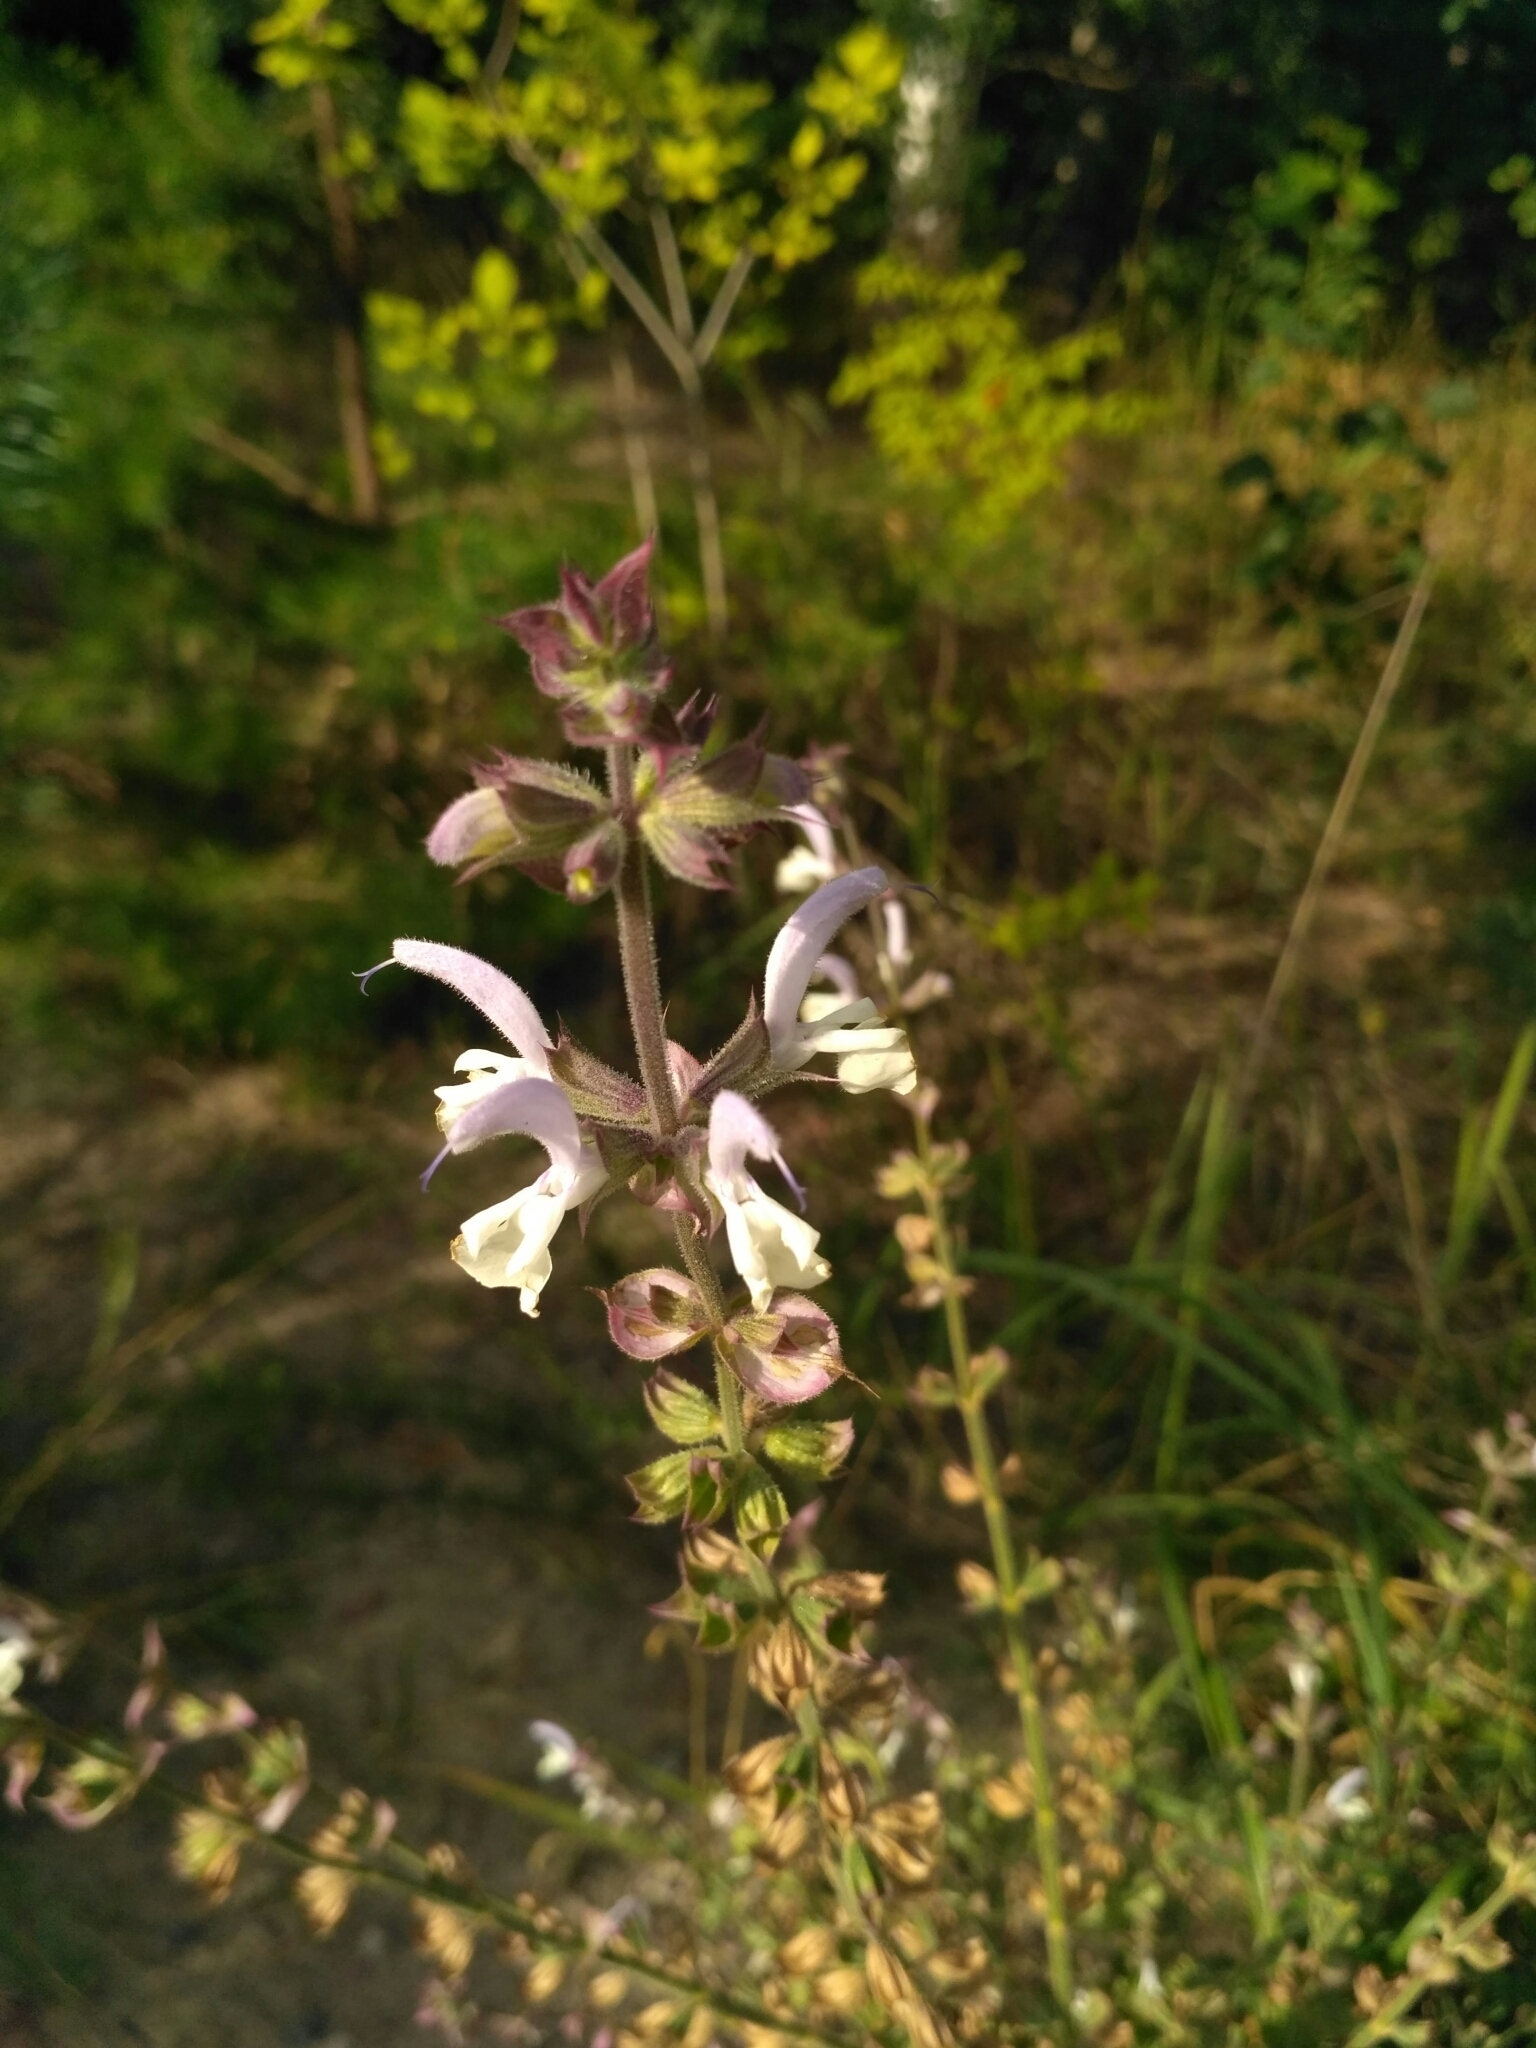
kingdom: Plantae
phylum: Tracheophyta
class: Magnoliopsida
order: Lamiales
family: Lamiaceae
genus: Salvia
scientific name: Salvia sclarea
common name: Clary
